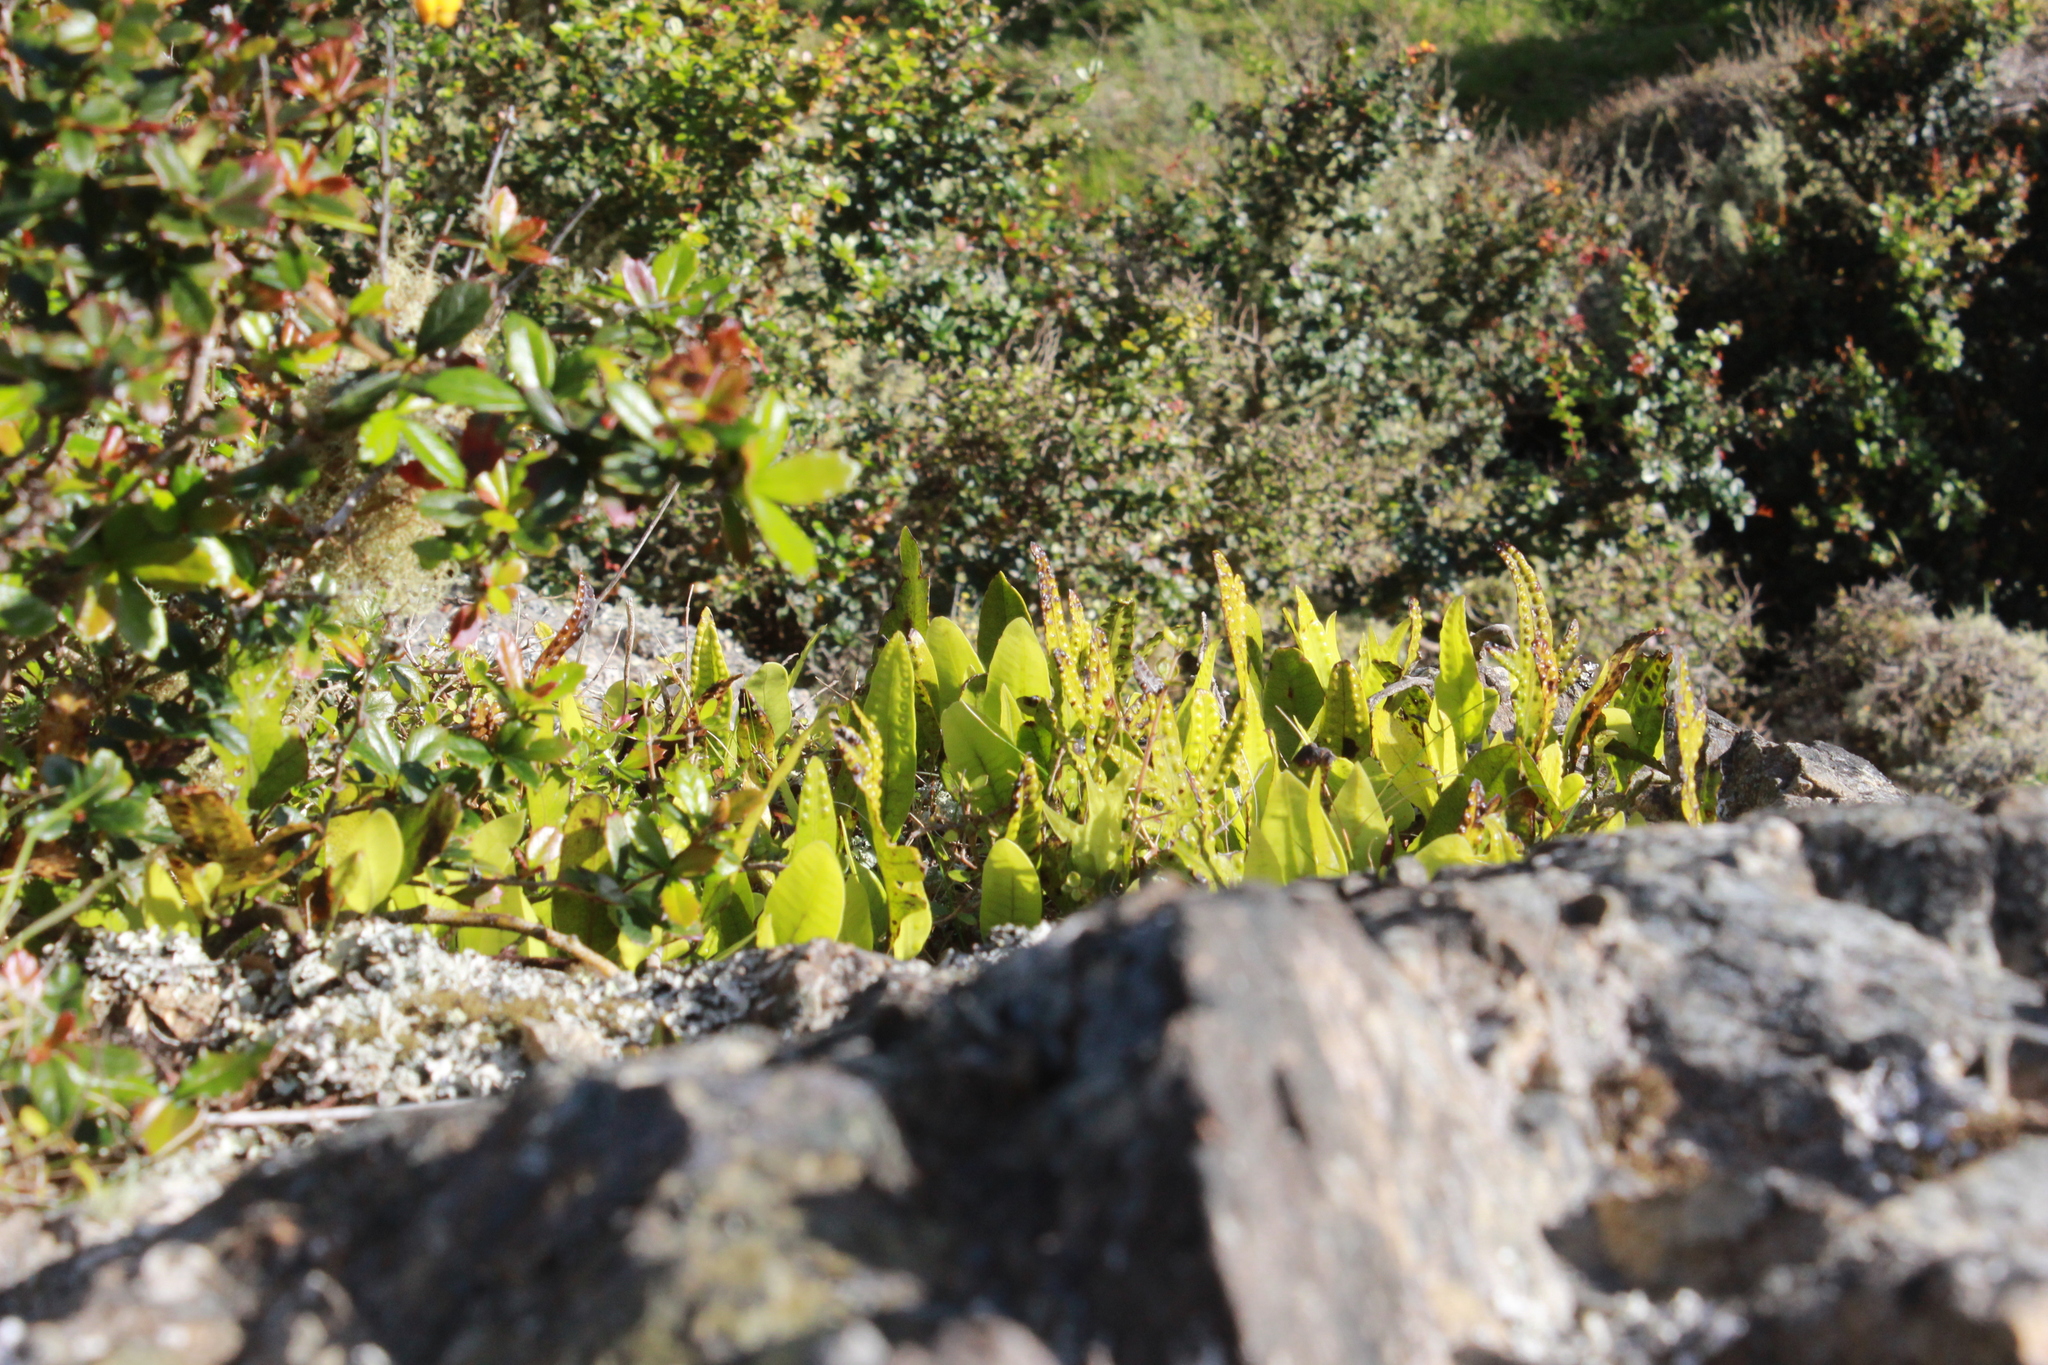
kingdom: Plantae
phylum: Tracheophyta
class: Polypodiopsida
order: Polypodiales
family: Polypodiaceae
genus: Lecanopteris
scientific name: Lecanopteris pustulata
